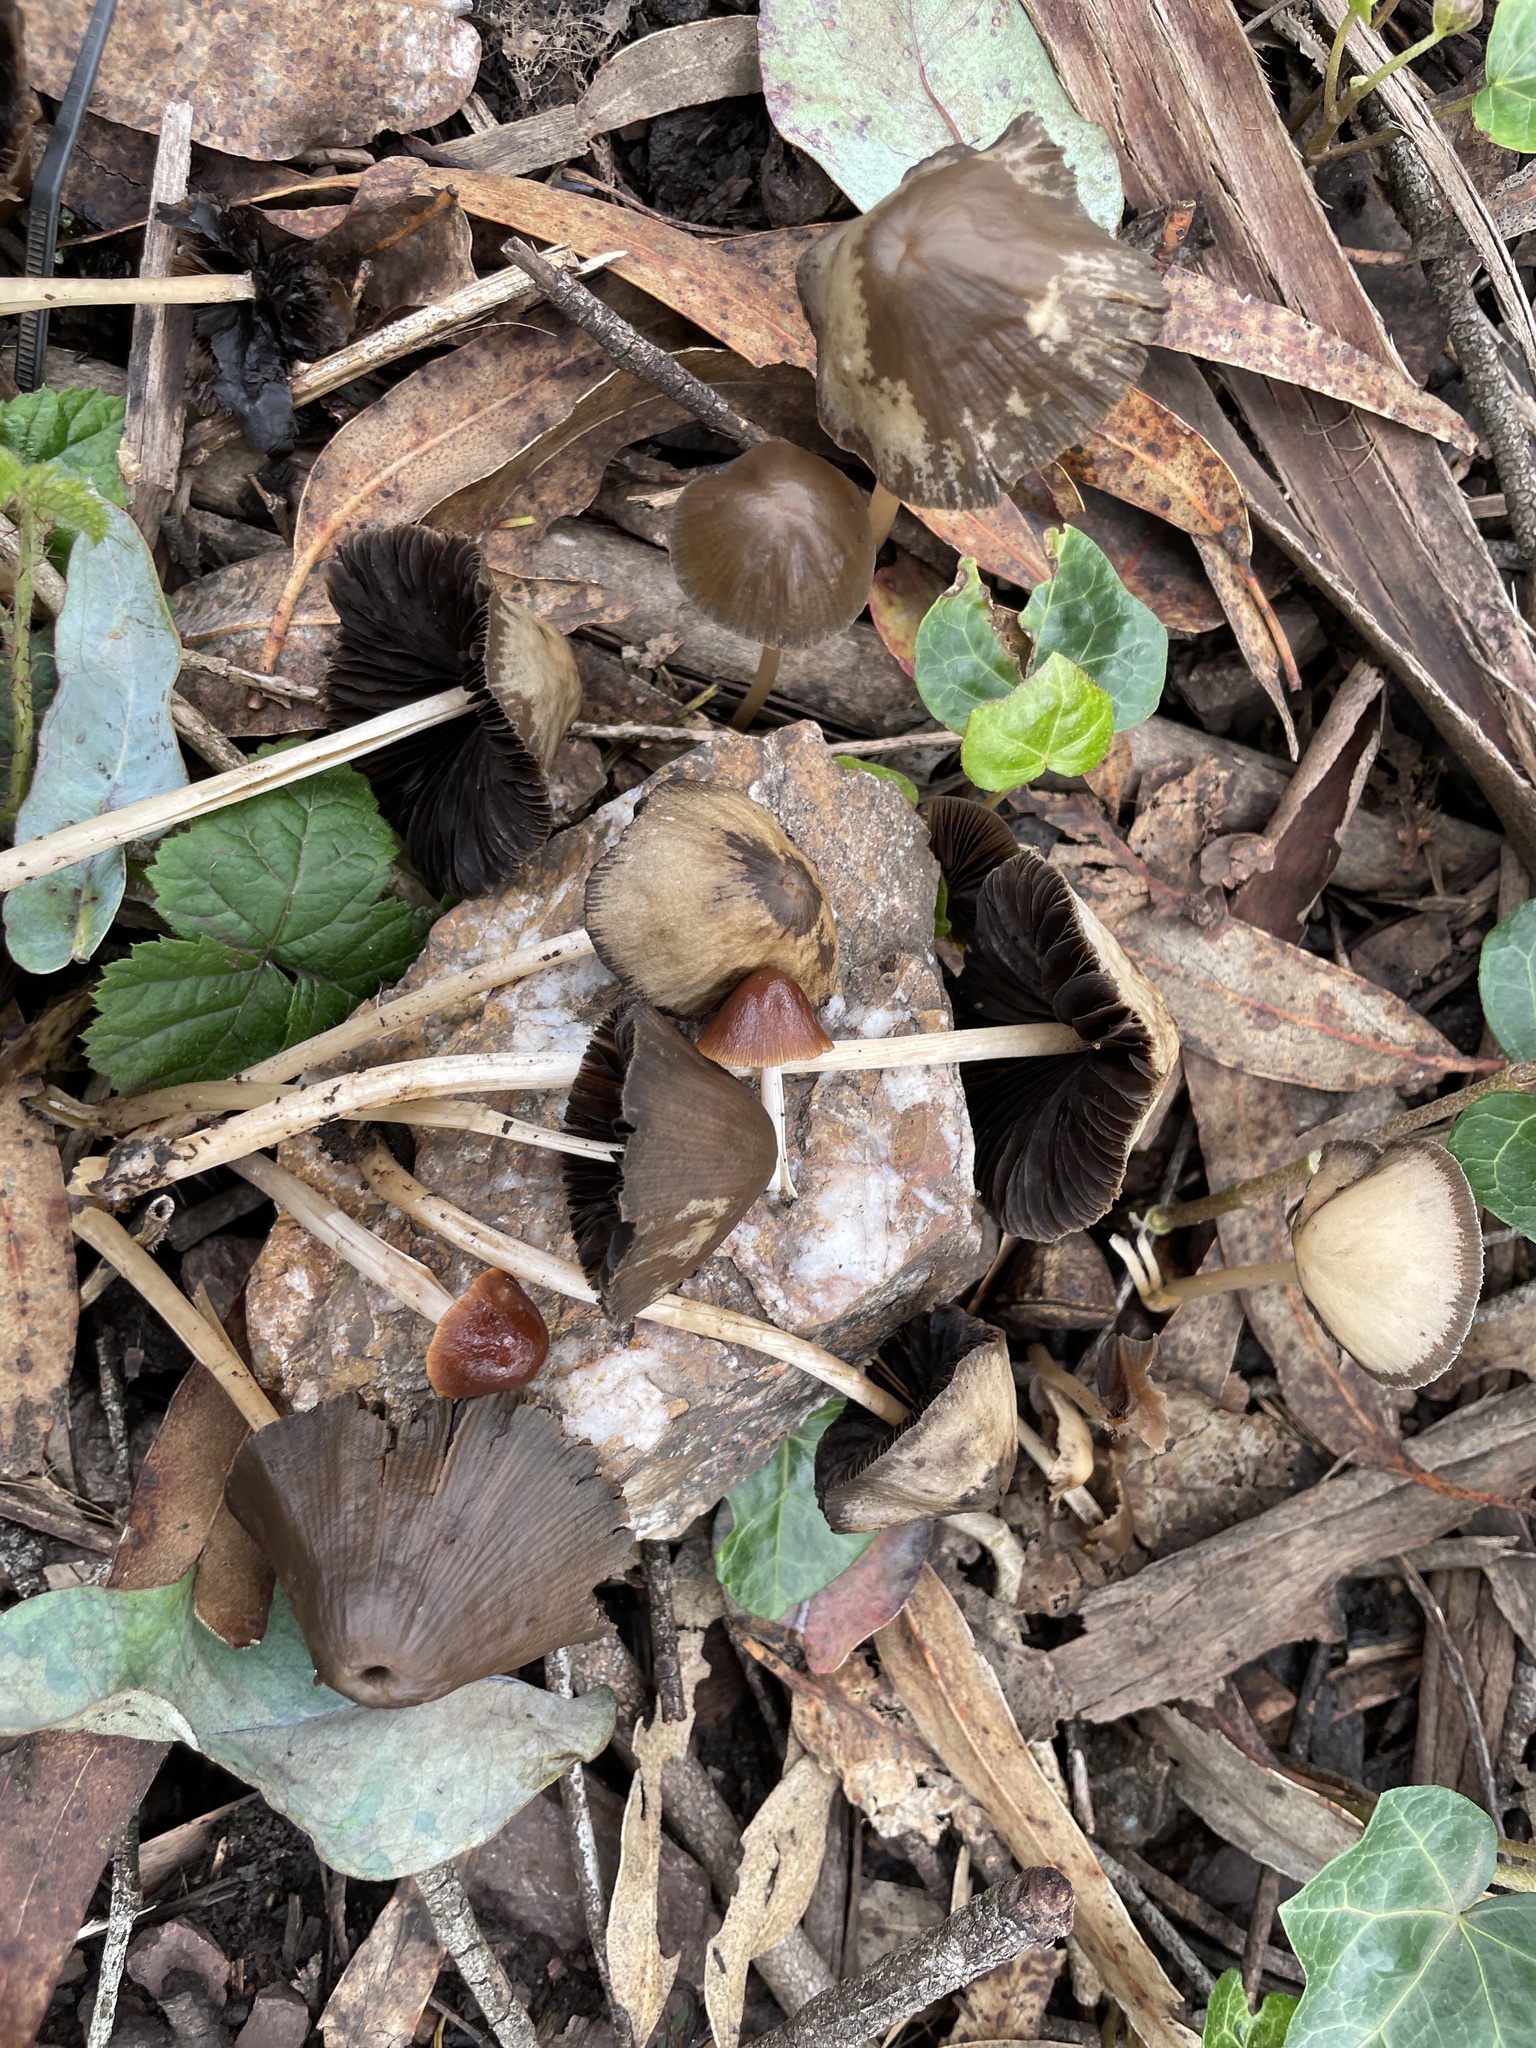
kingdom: Fungi
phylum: Basidiomycota
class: Agaricomycetes
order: Agaricales
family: Psathyrellaceae
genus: Parasola
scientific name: Parasola conopilea
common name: Conical brittlestem
